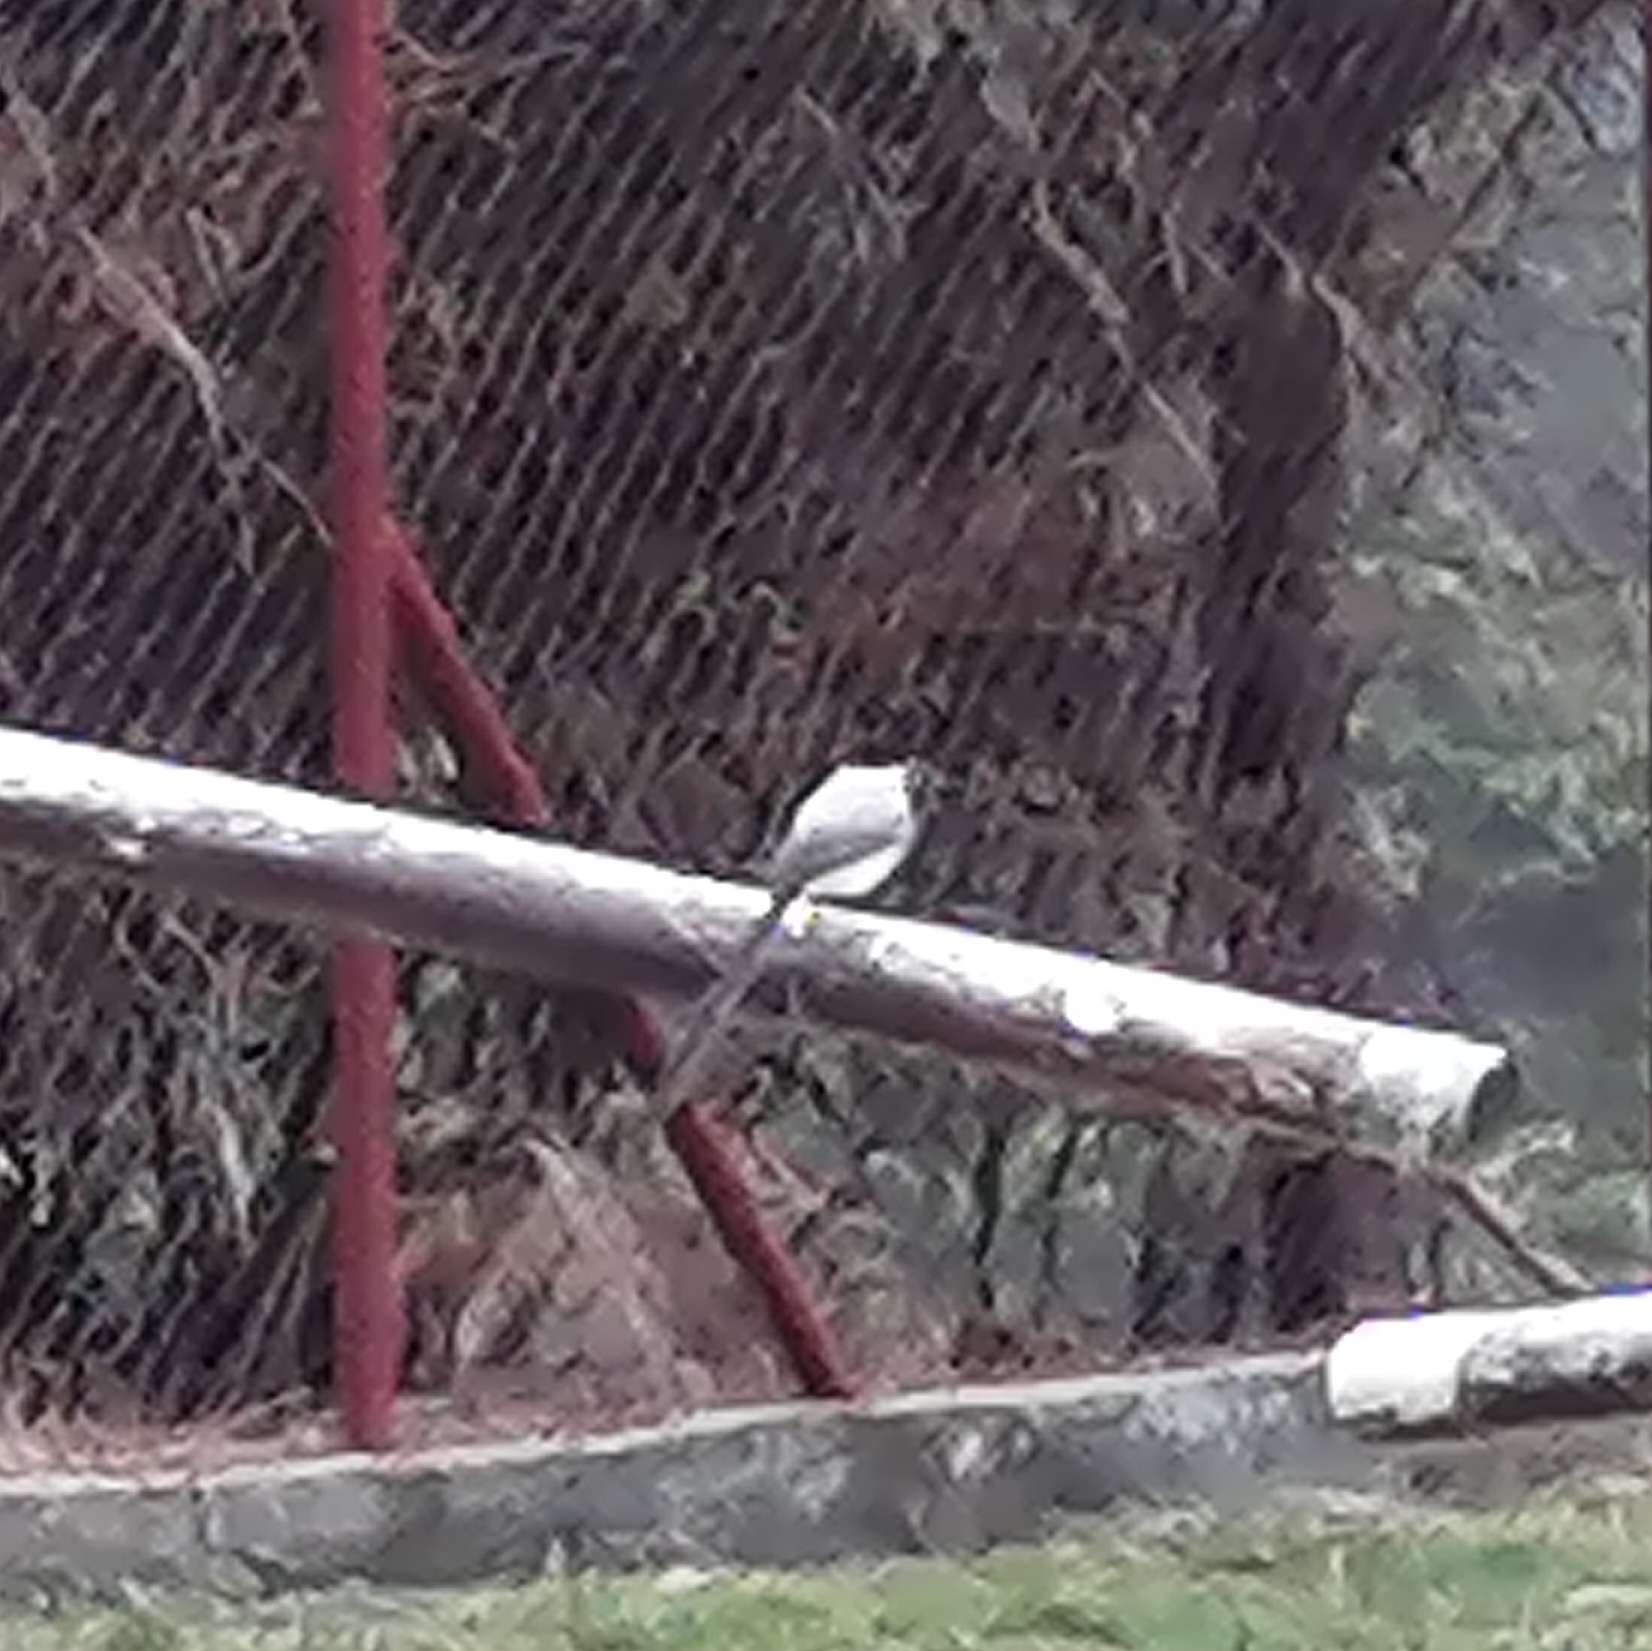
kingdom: Animalia
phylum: Chordata
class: Aves
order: Passeriformes
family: Tyrannidae
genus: Tyrannus
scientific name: Tyrannus savana
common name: Fork-tailed flycatcher
